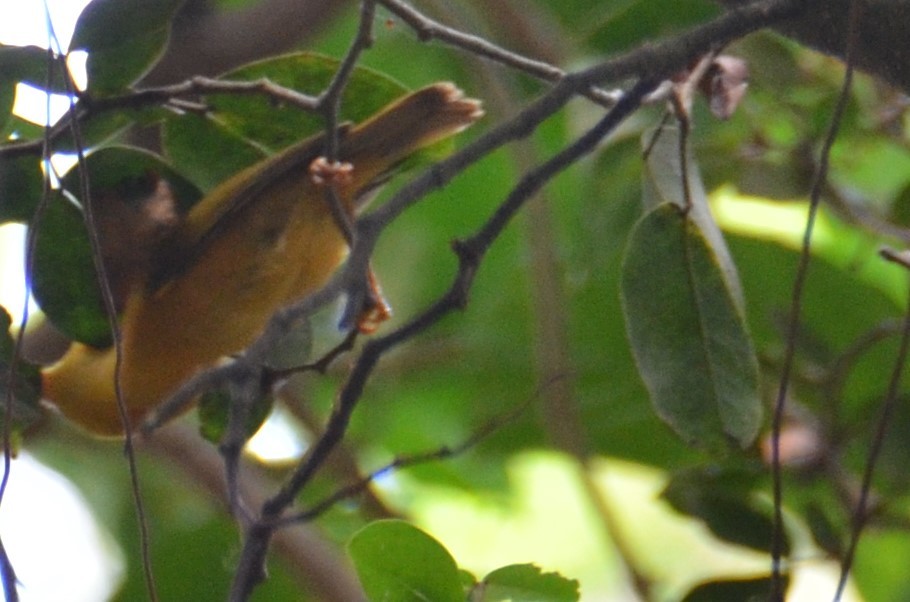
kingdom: Animalia
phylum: Chordata
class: Aves
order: Passeriformes
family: Zosteropidae
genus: Cleptornis
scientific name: Cleptornis marchei
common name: Golden white-eye
